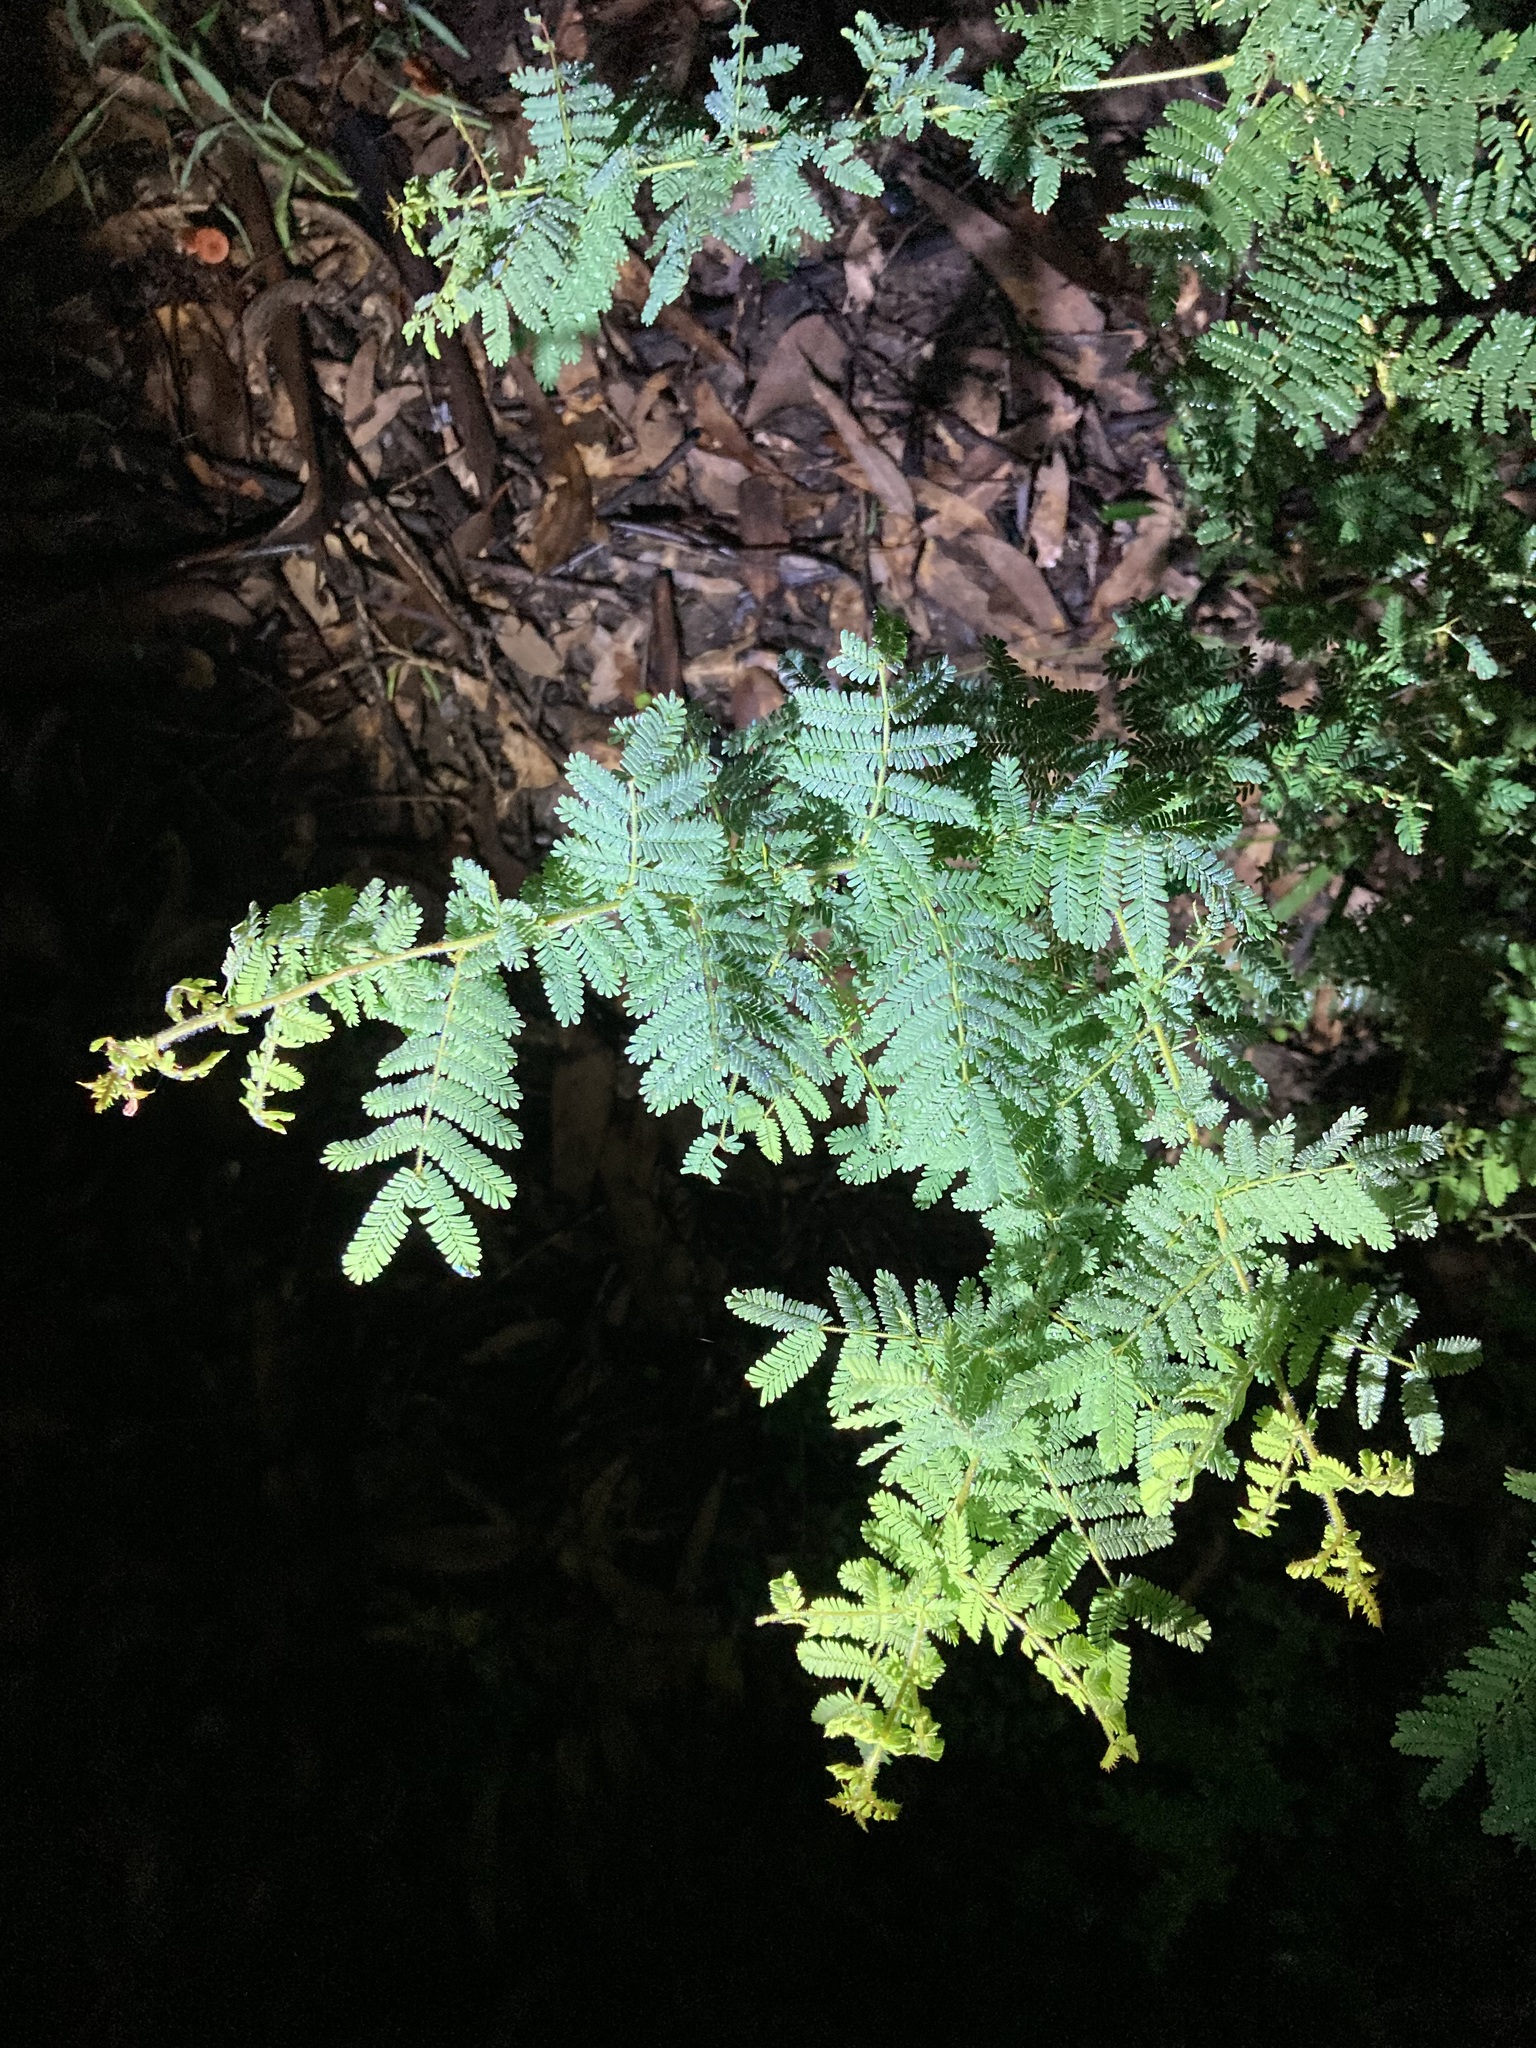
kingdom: Plantae
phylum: Tracheophyta
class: Magnoliopsida
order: Fabales
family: Fabaceae
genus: Acacia
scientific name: Acacia pubescens
